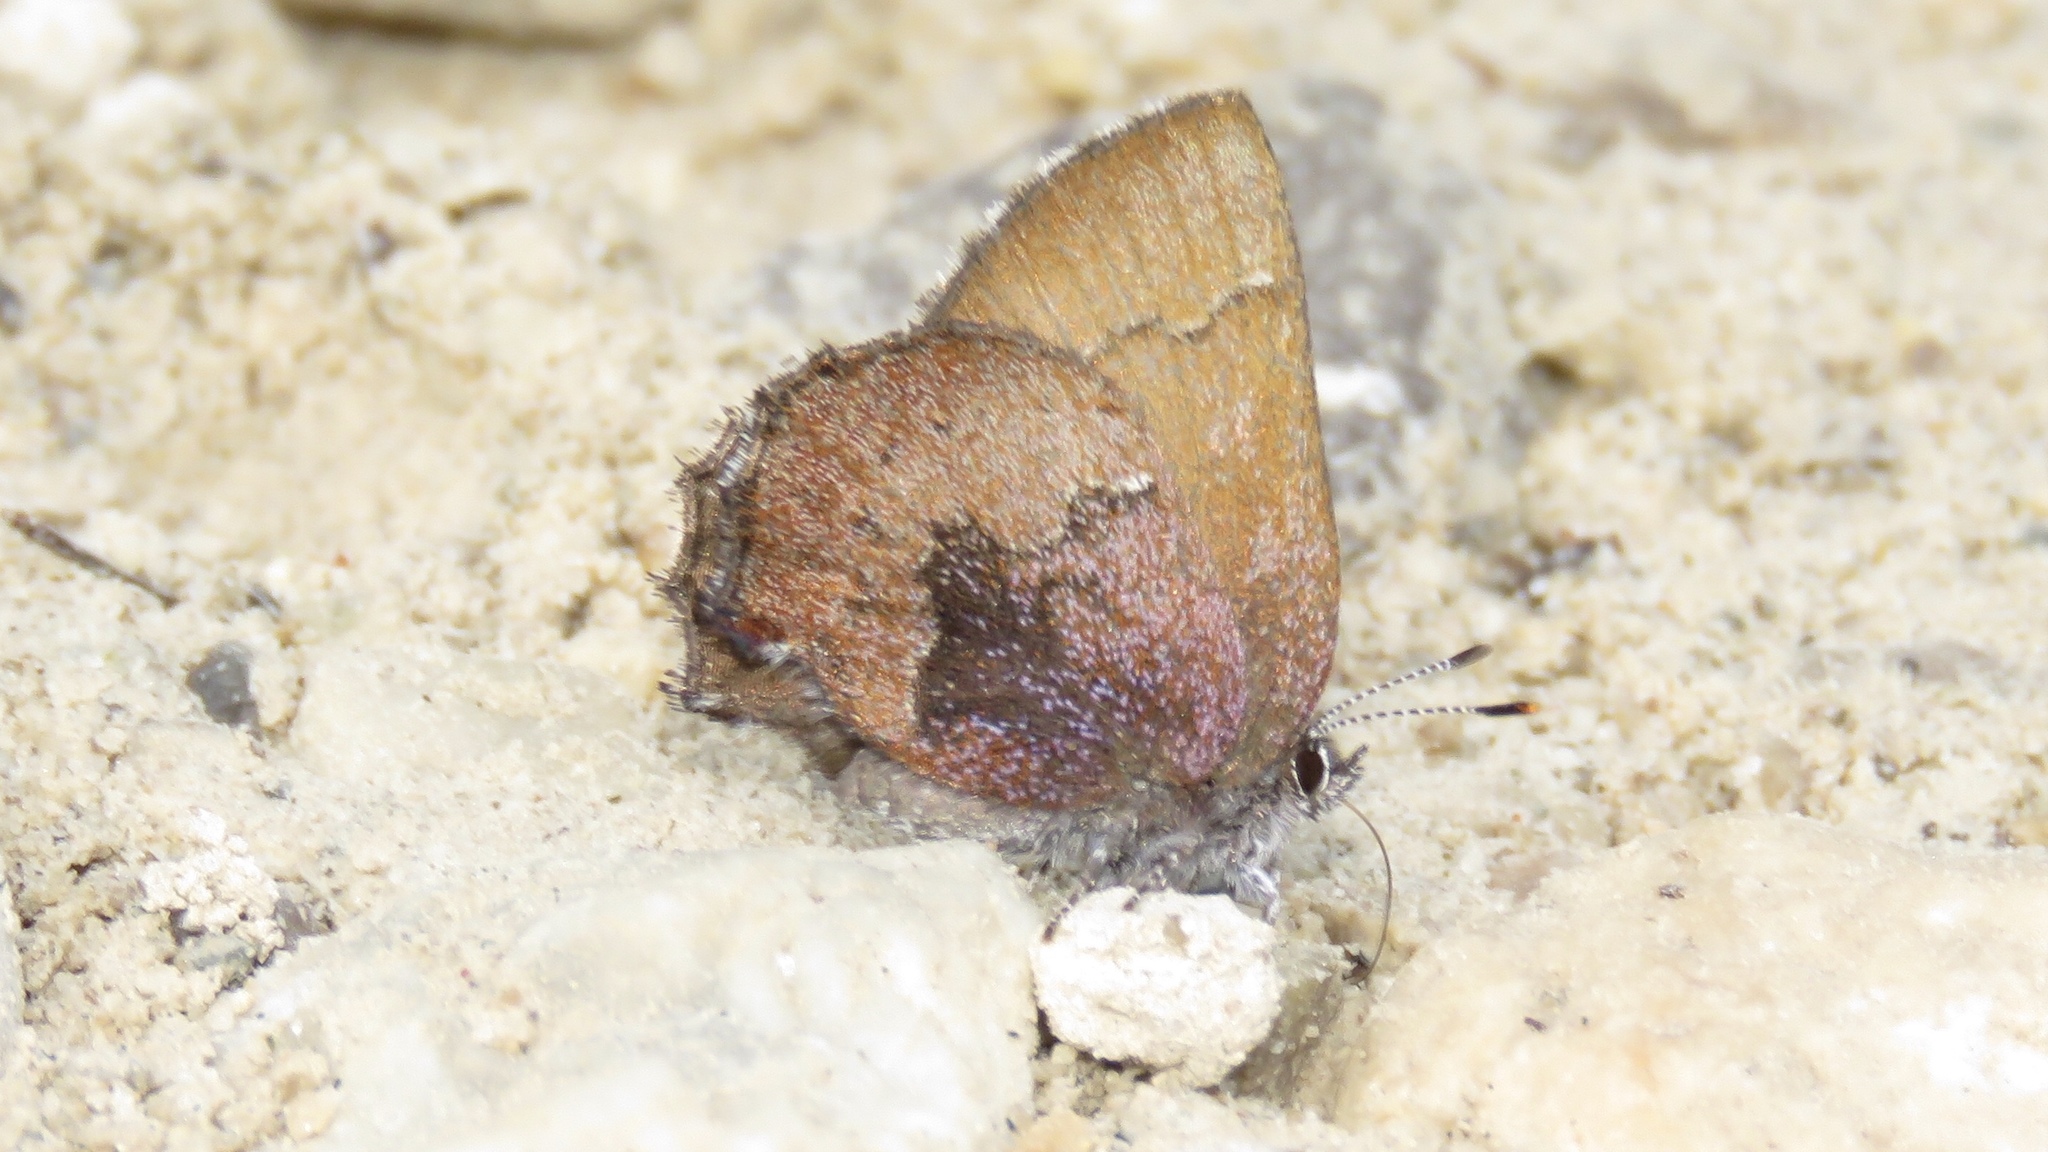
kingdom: Animalia
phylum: Arthropoda
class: Insecta
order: Lepidoptera
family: Lycaenidae
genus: Incisalia
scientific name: Incisalia irioides
